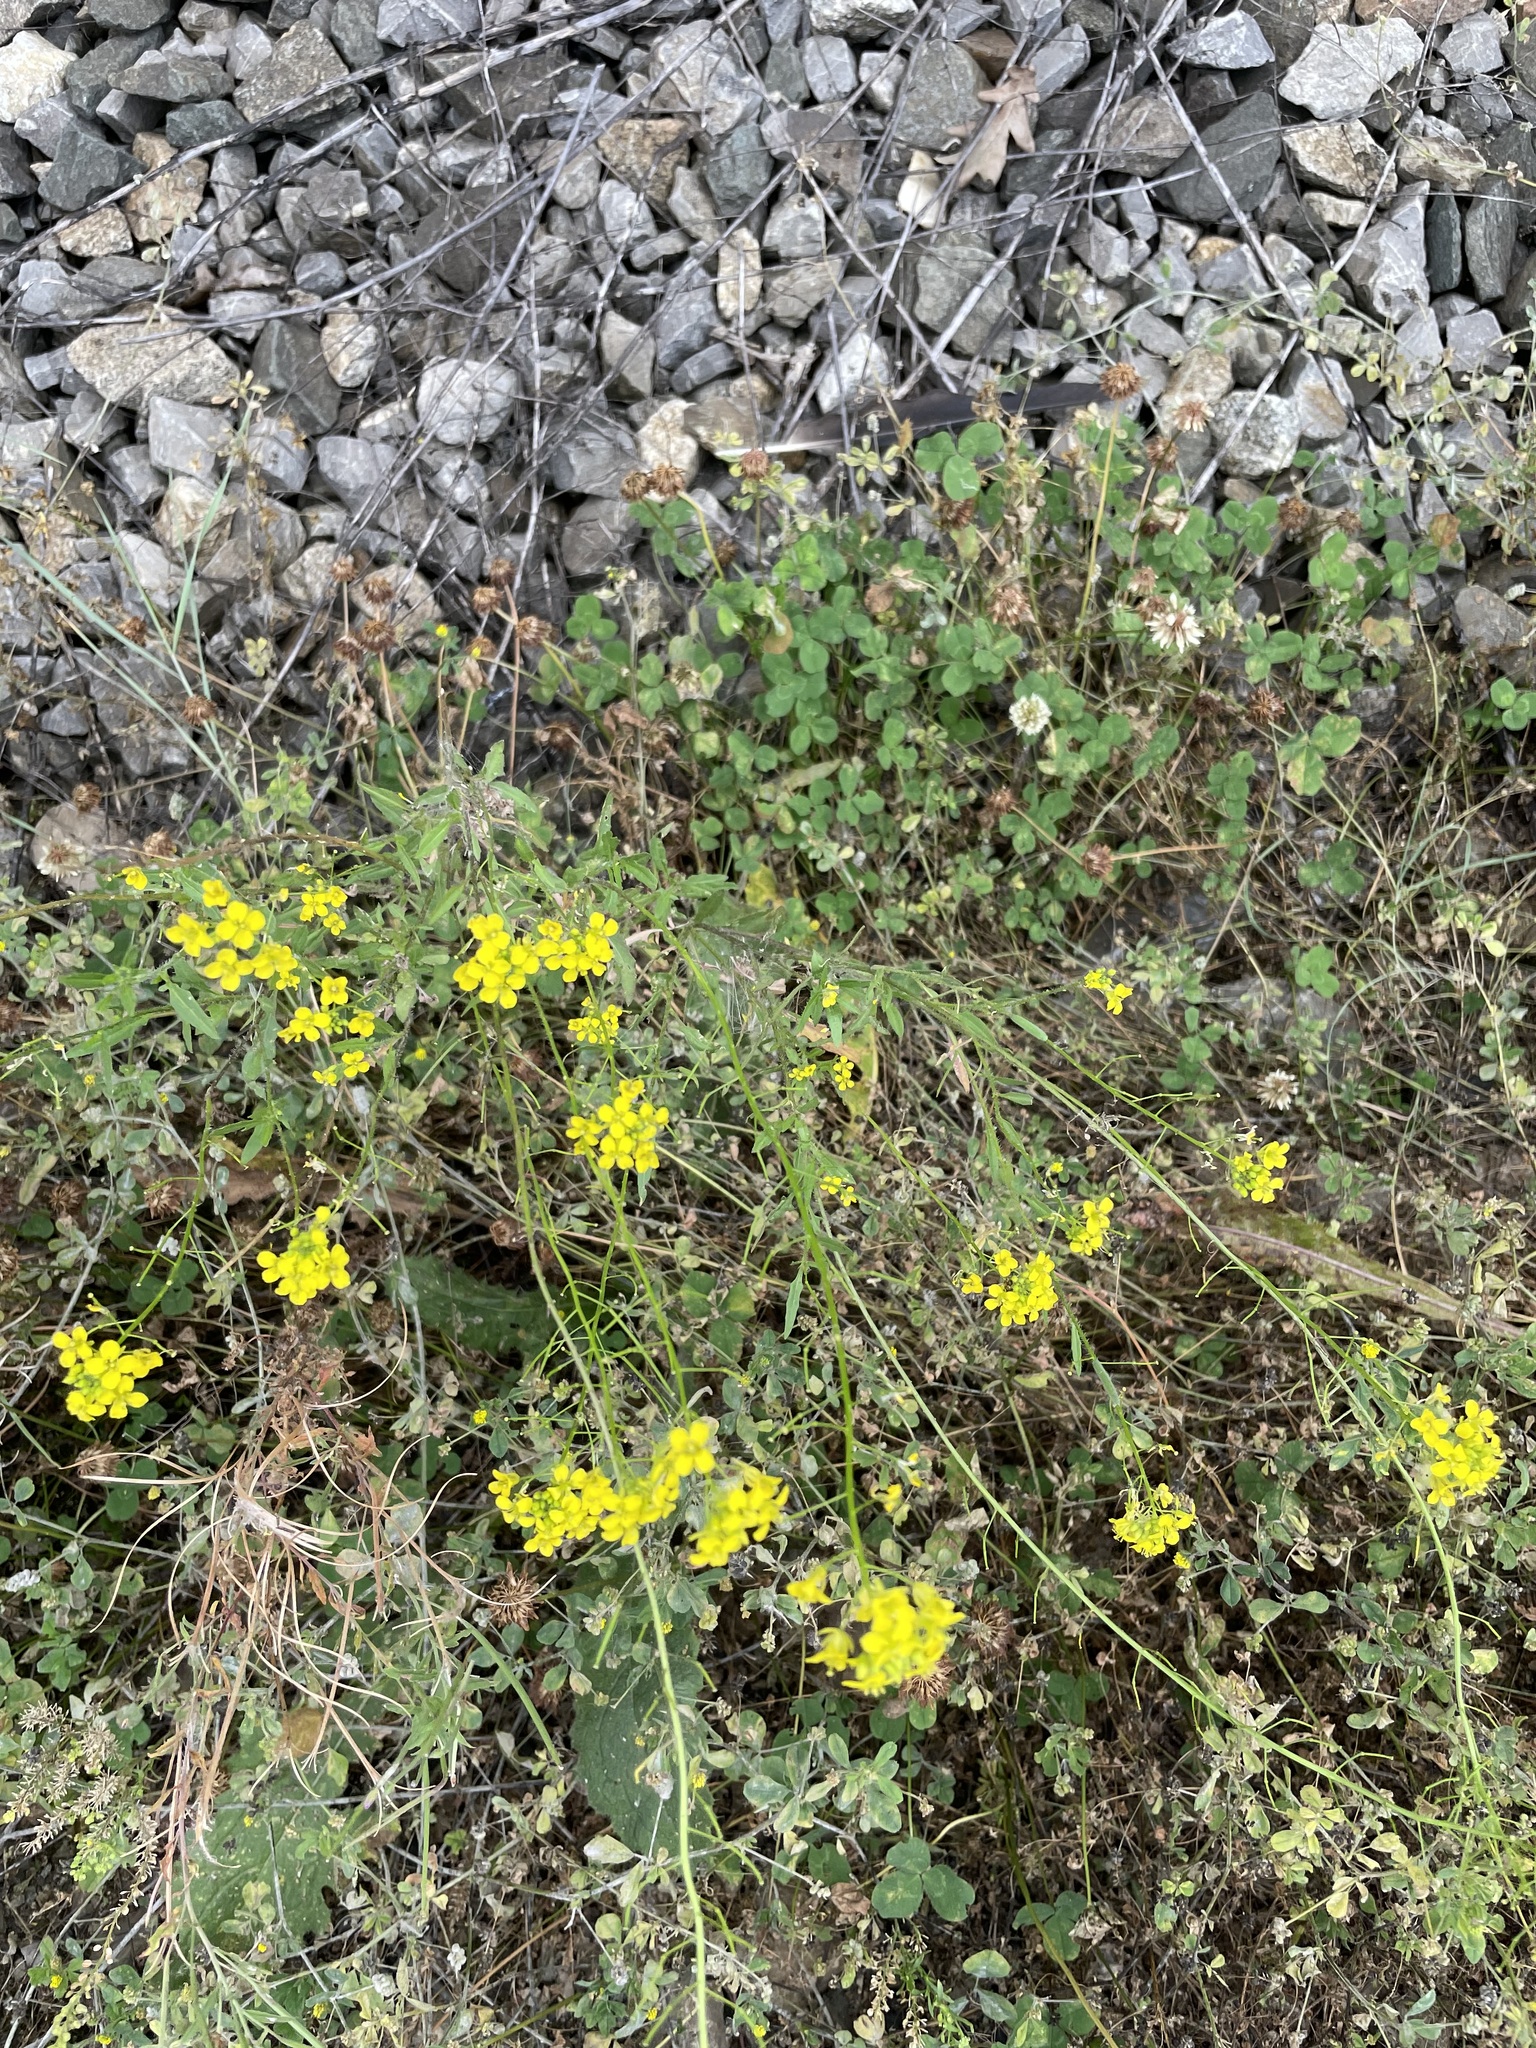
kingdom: Plantae
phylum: Tracheophyta
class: Magnoliopsida
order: Brassicales
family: Brassicaceae
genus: Sisymbrium
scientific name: Sisymbrium loeselii
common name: False london-rocket
